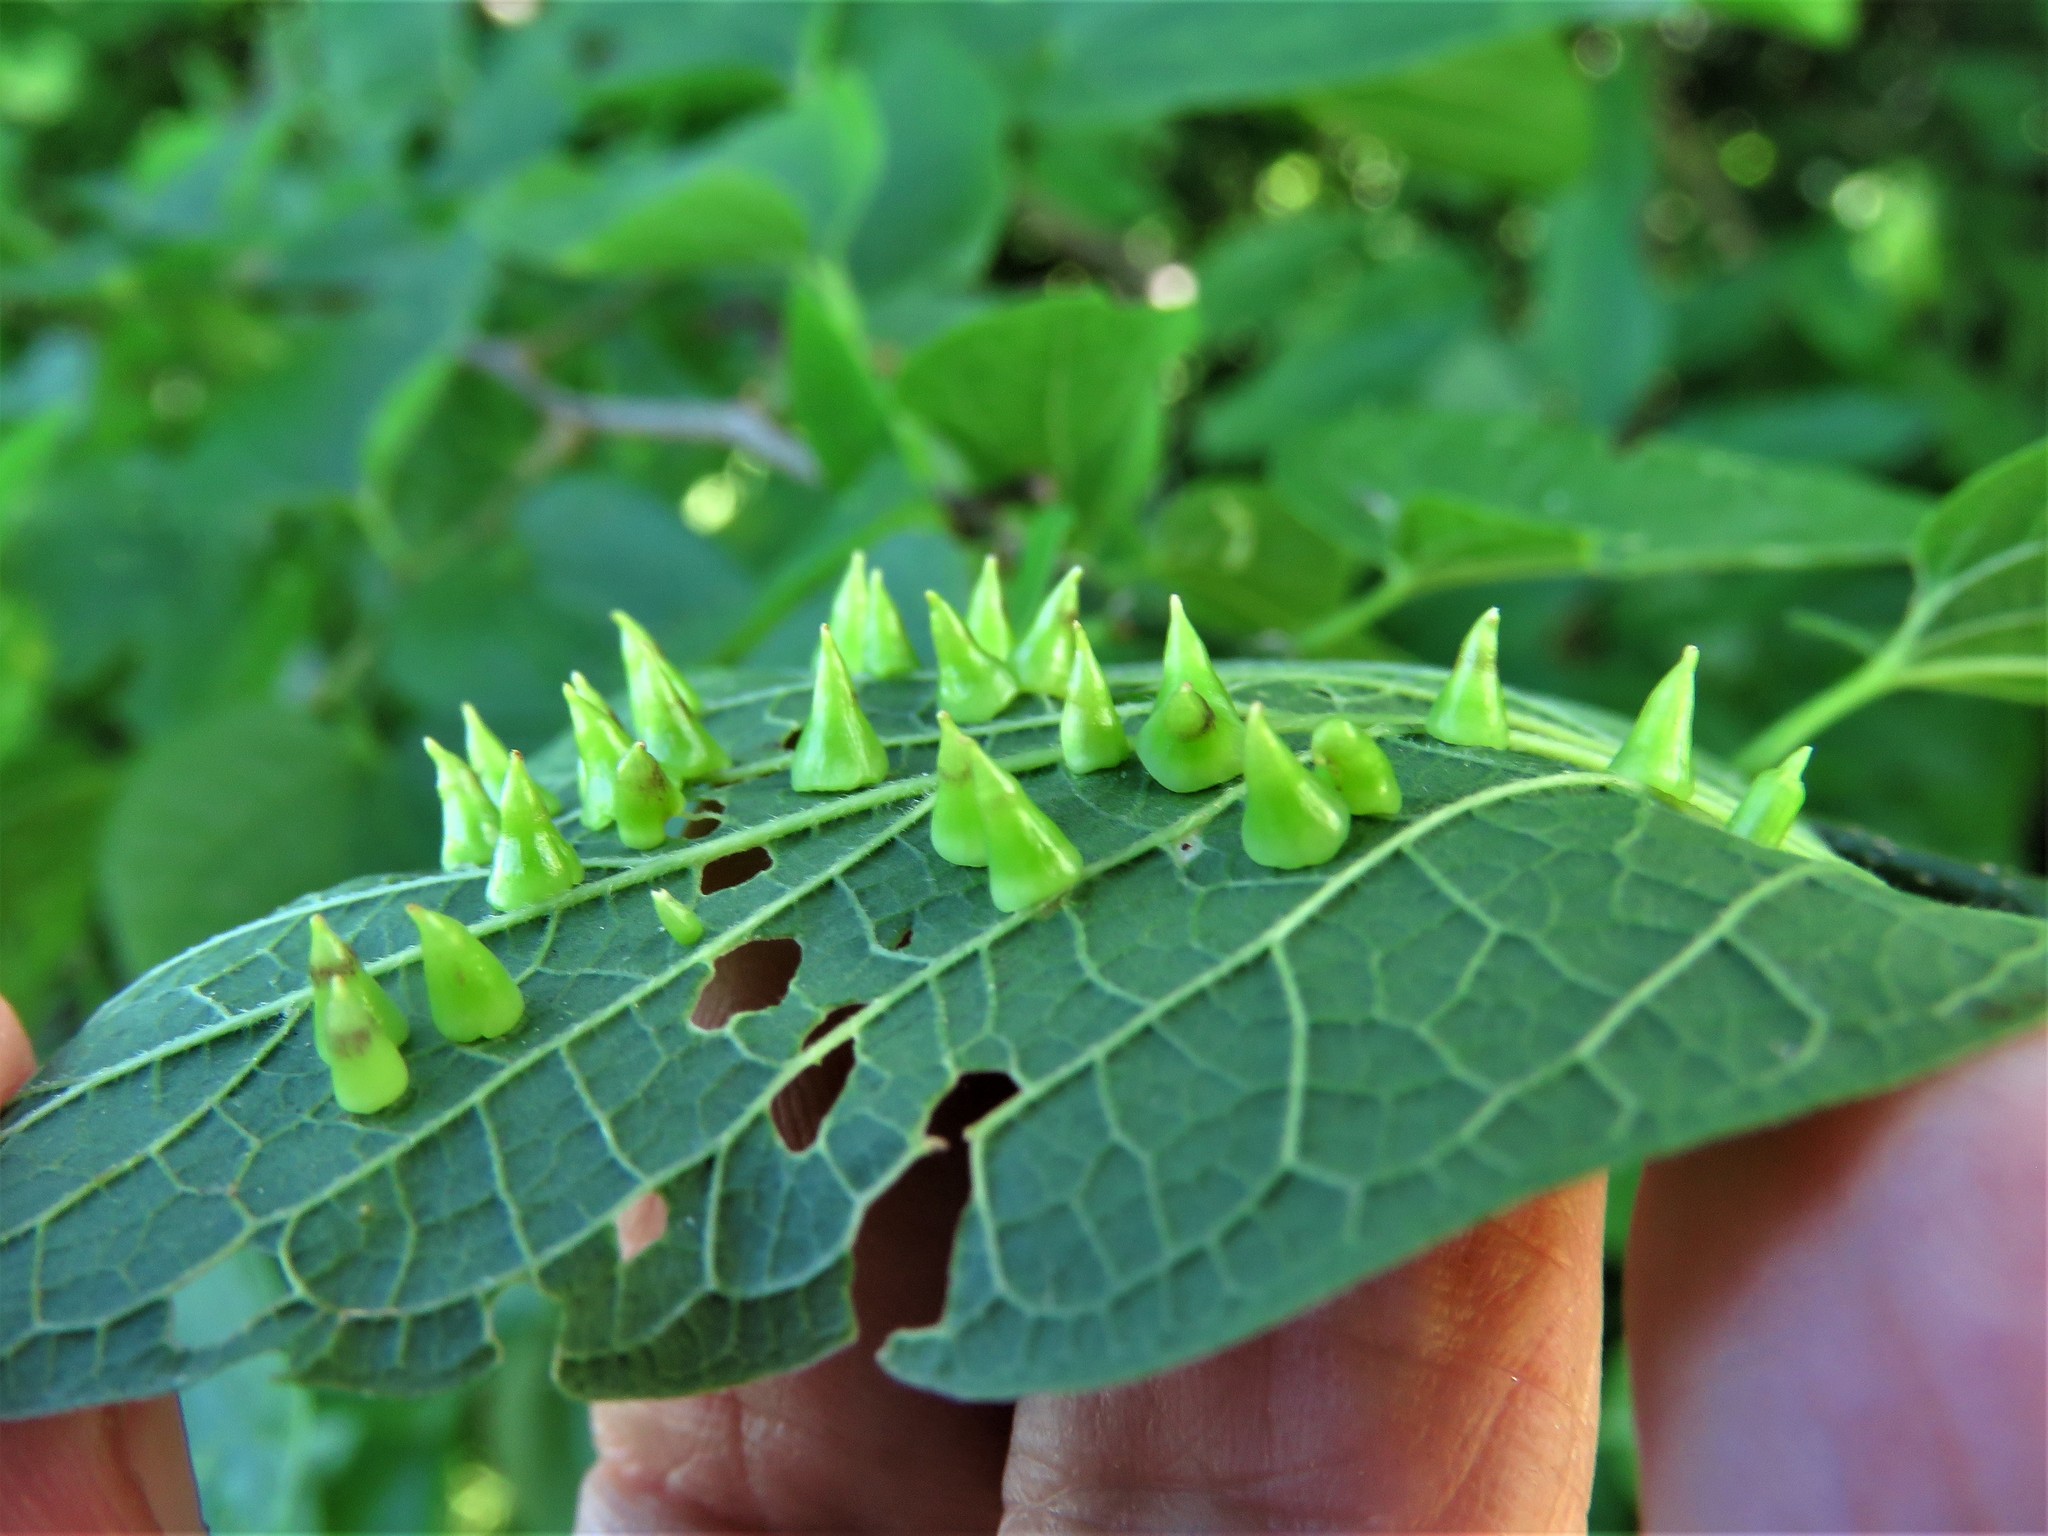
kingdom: Animalia
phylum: Arthropoda
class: Insecta
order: Diptera
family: Cecidomyiidae
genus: Celticecis
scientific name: Celticecis spiniformis
